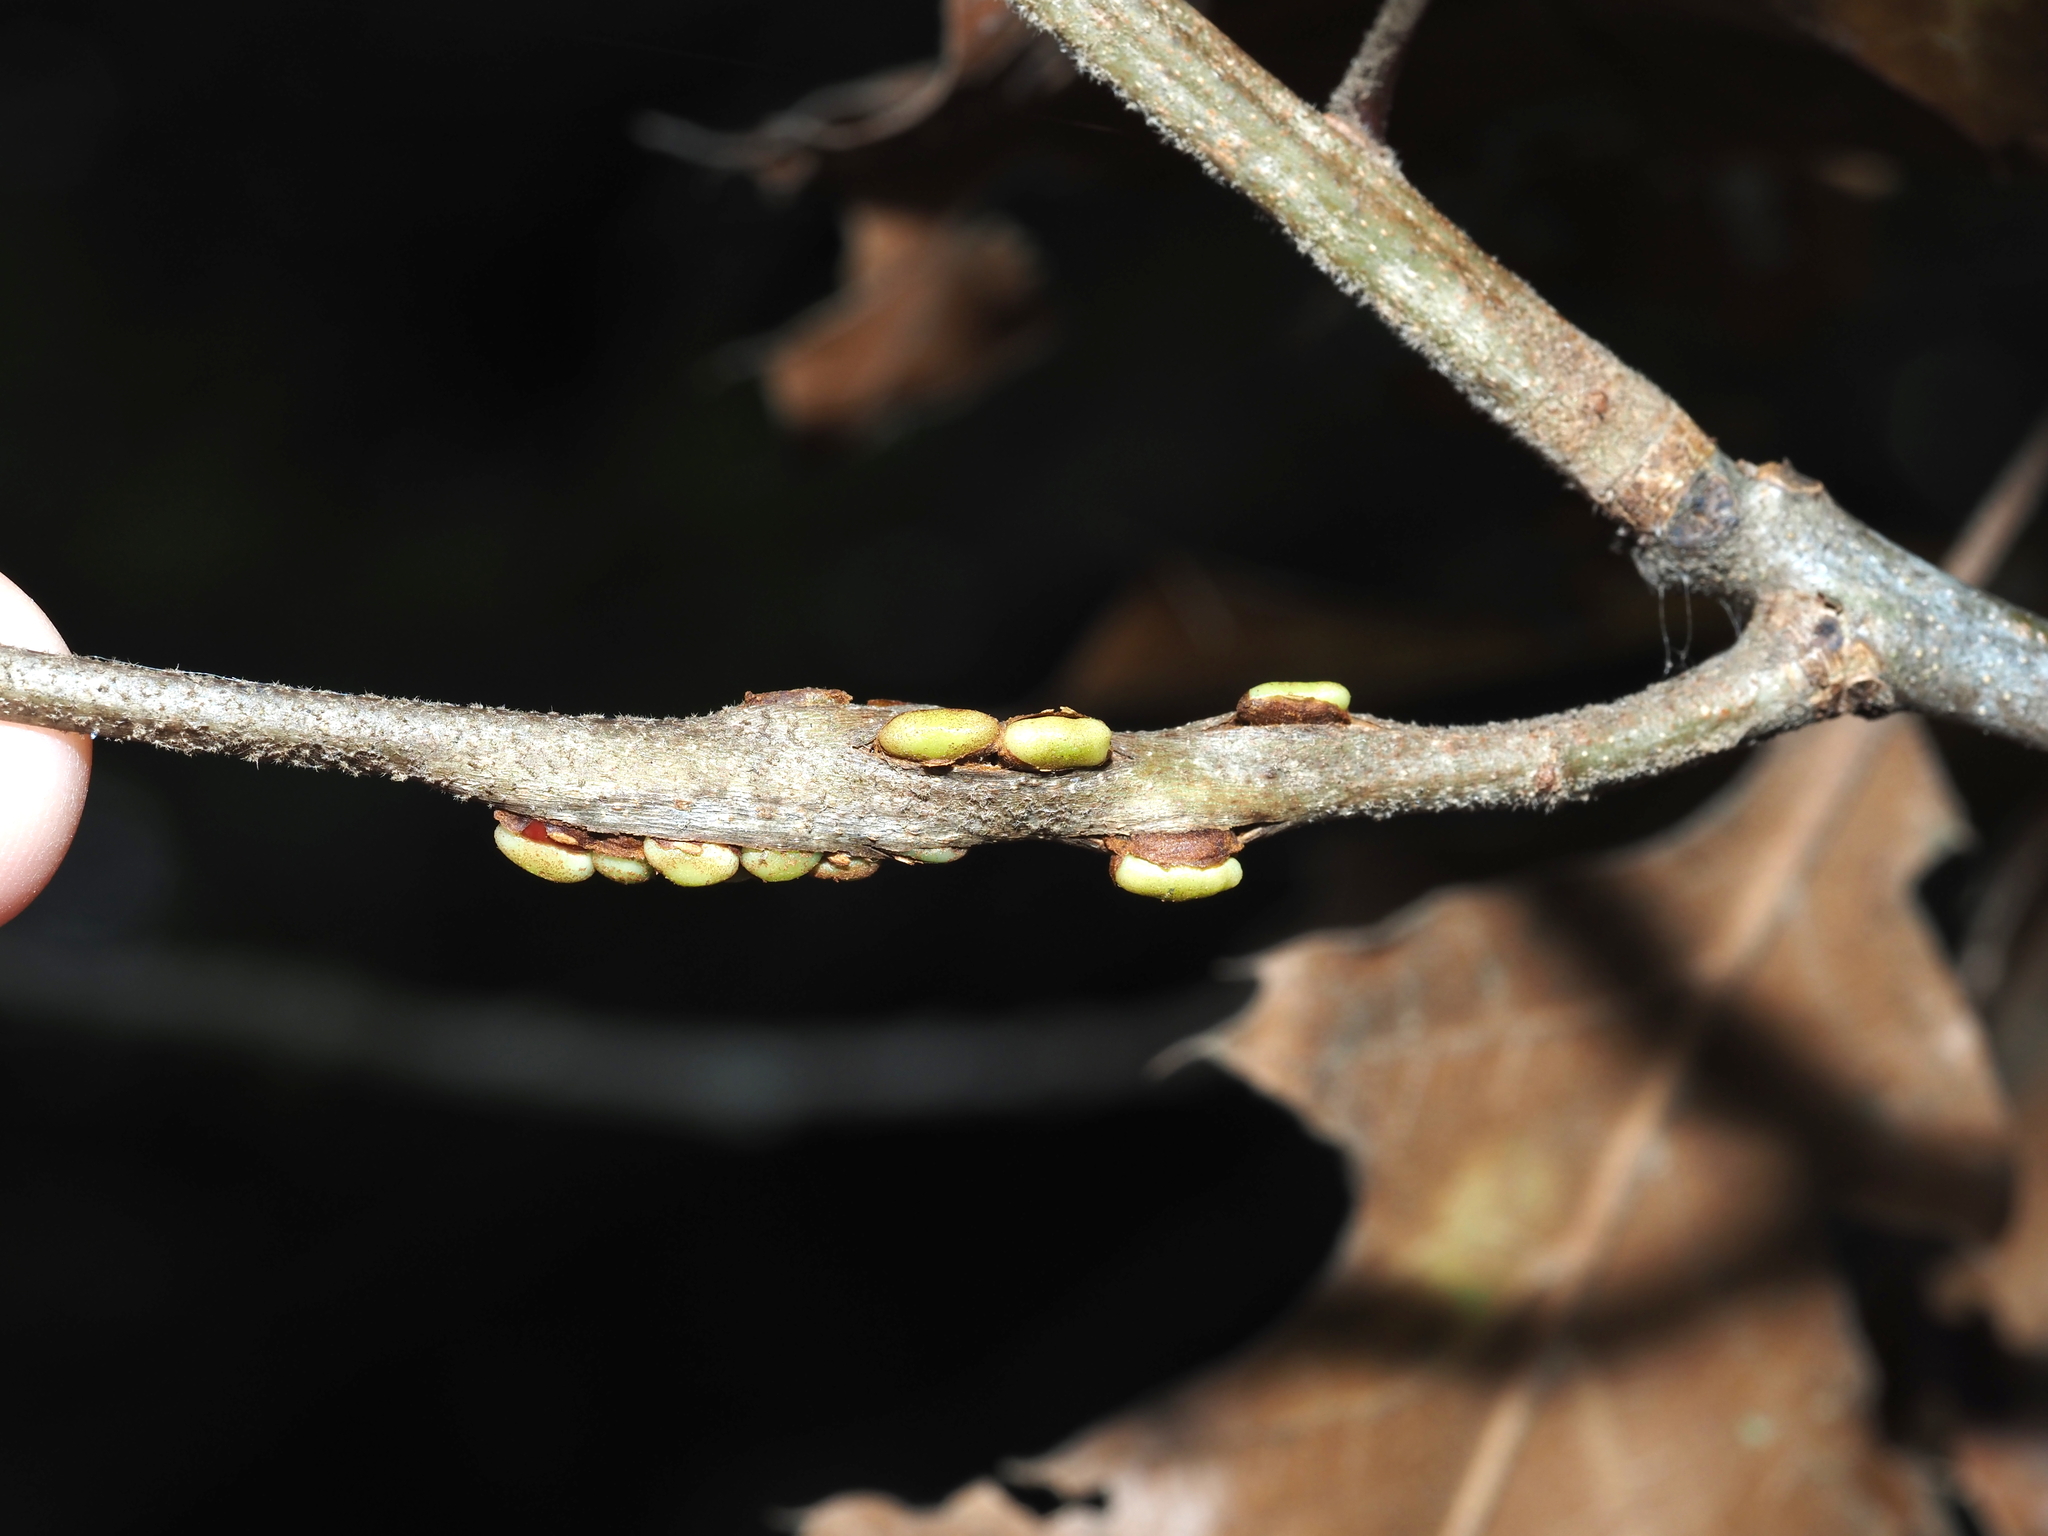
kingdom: Animalia
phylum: Arthropoda
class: Insecta
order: Hymenoptera
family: Cynipidae
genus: Callirhytis
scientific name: Callirhytis
